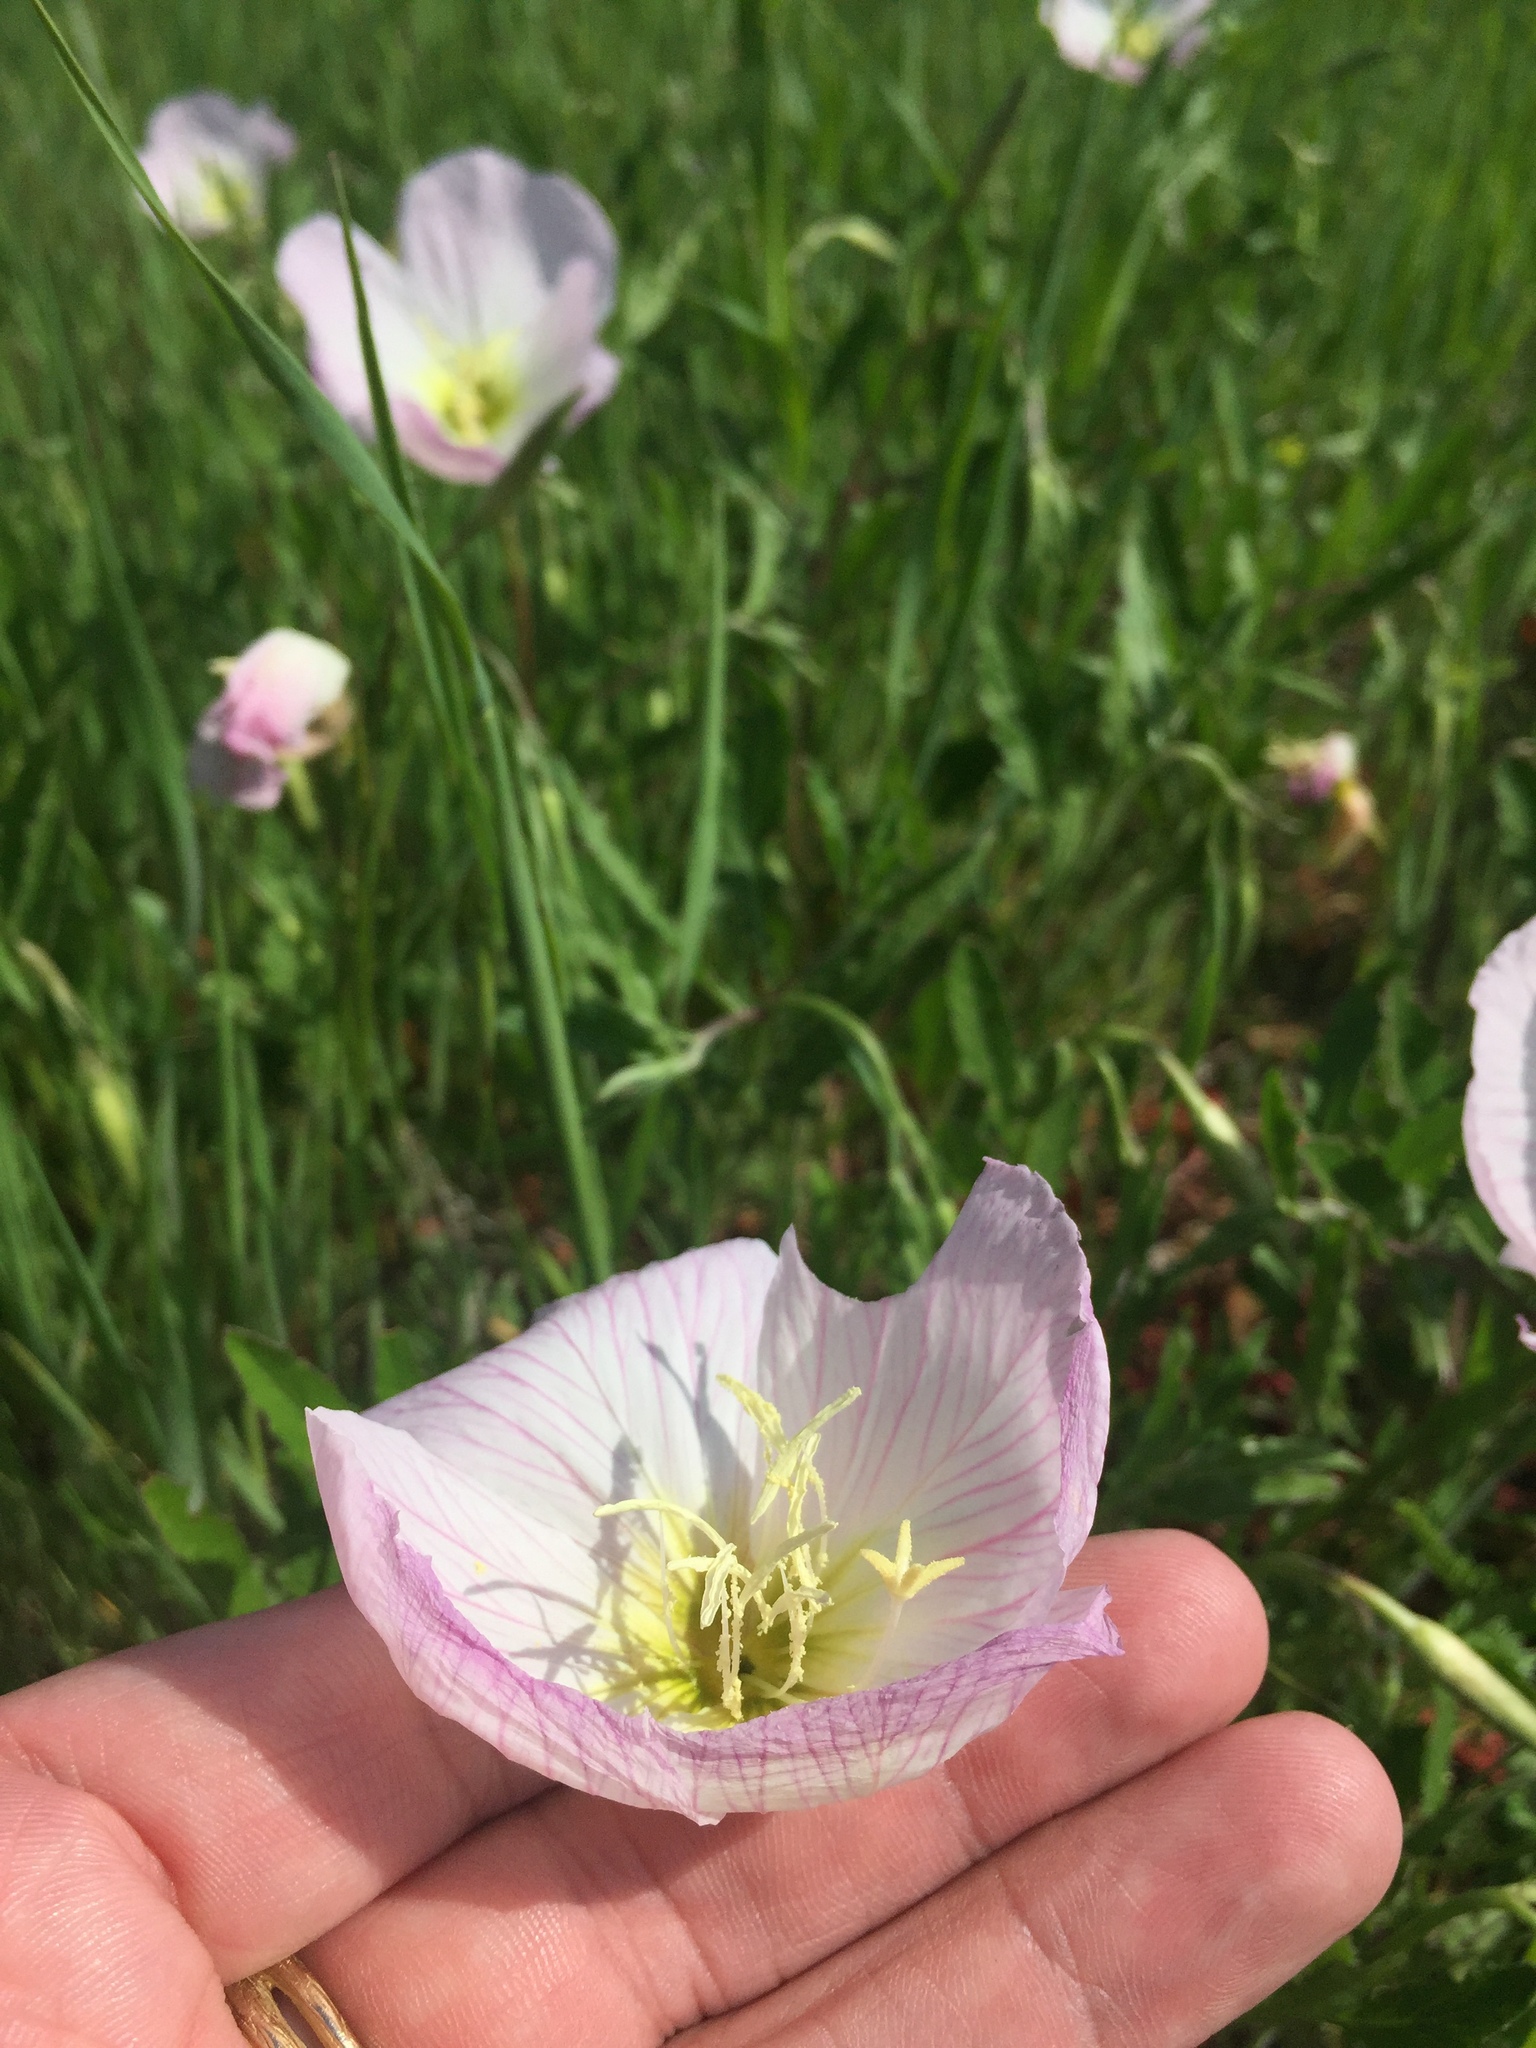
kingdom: Plantae
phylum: Tracheophyta
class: Magnoliopsida
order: Myrtales
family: Onagraceae
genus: Oenothera
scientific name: Oenothera speciosa
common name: White evening-primrose
